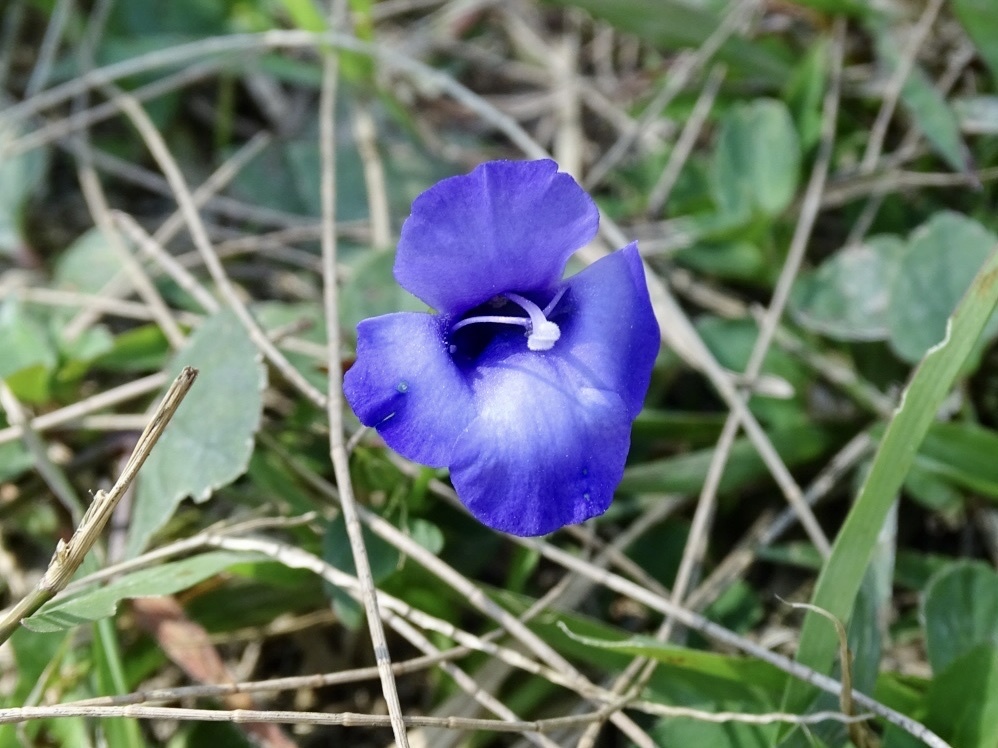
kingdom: Plantae
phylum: Tracheophyta
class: Magnoliopsida
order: Lamiales
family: Linderniaceae
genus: Torenia
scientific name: Torenia concolor
